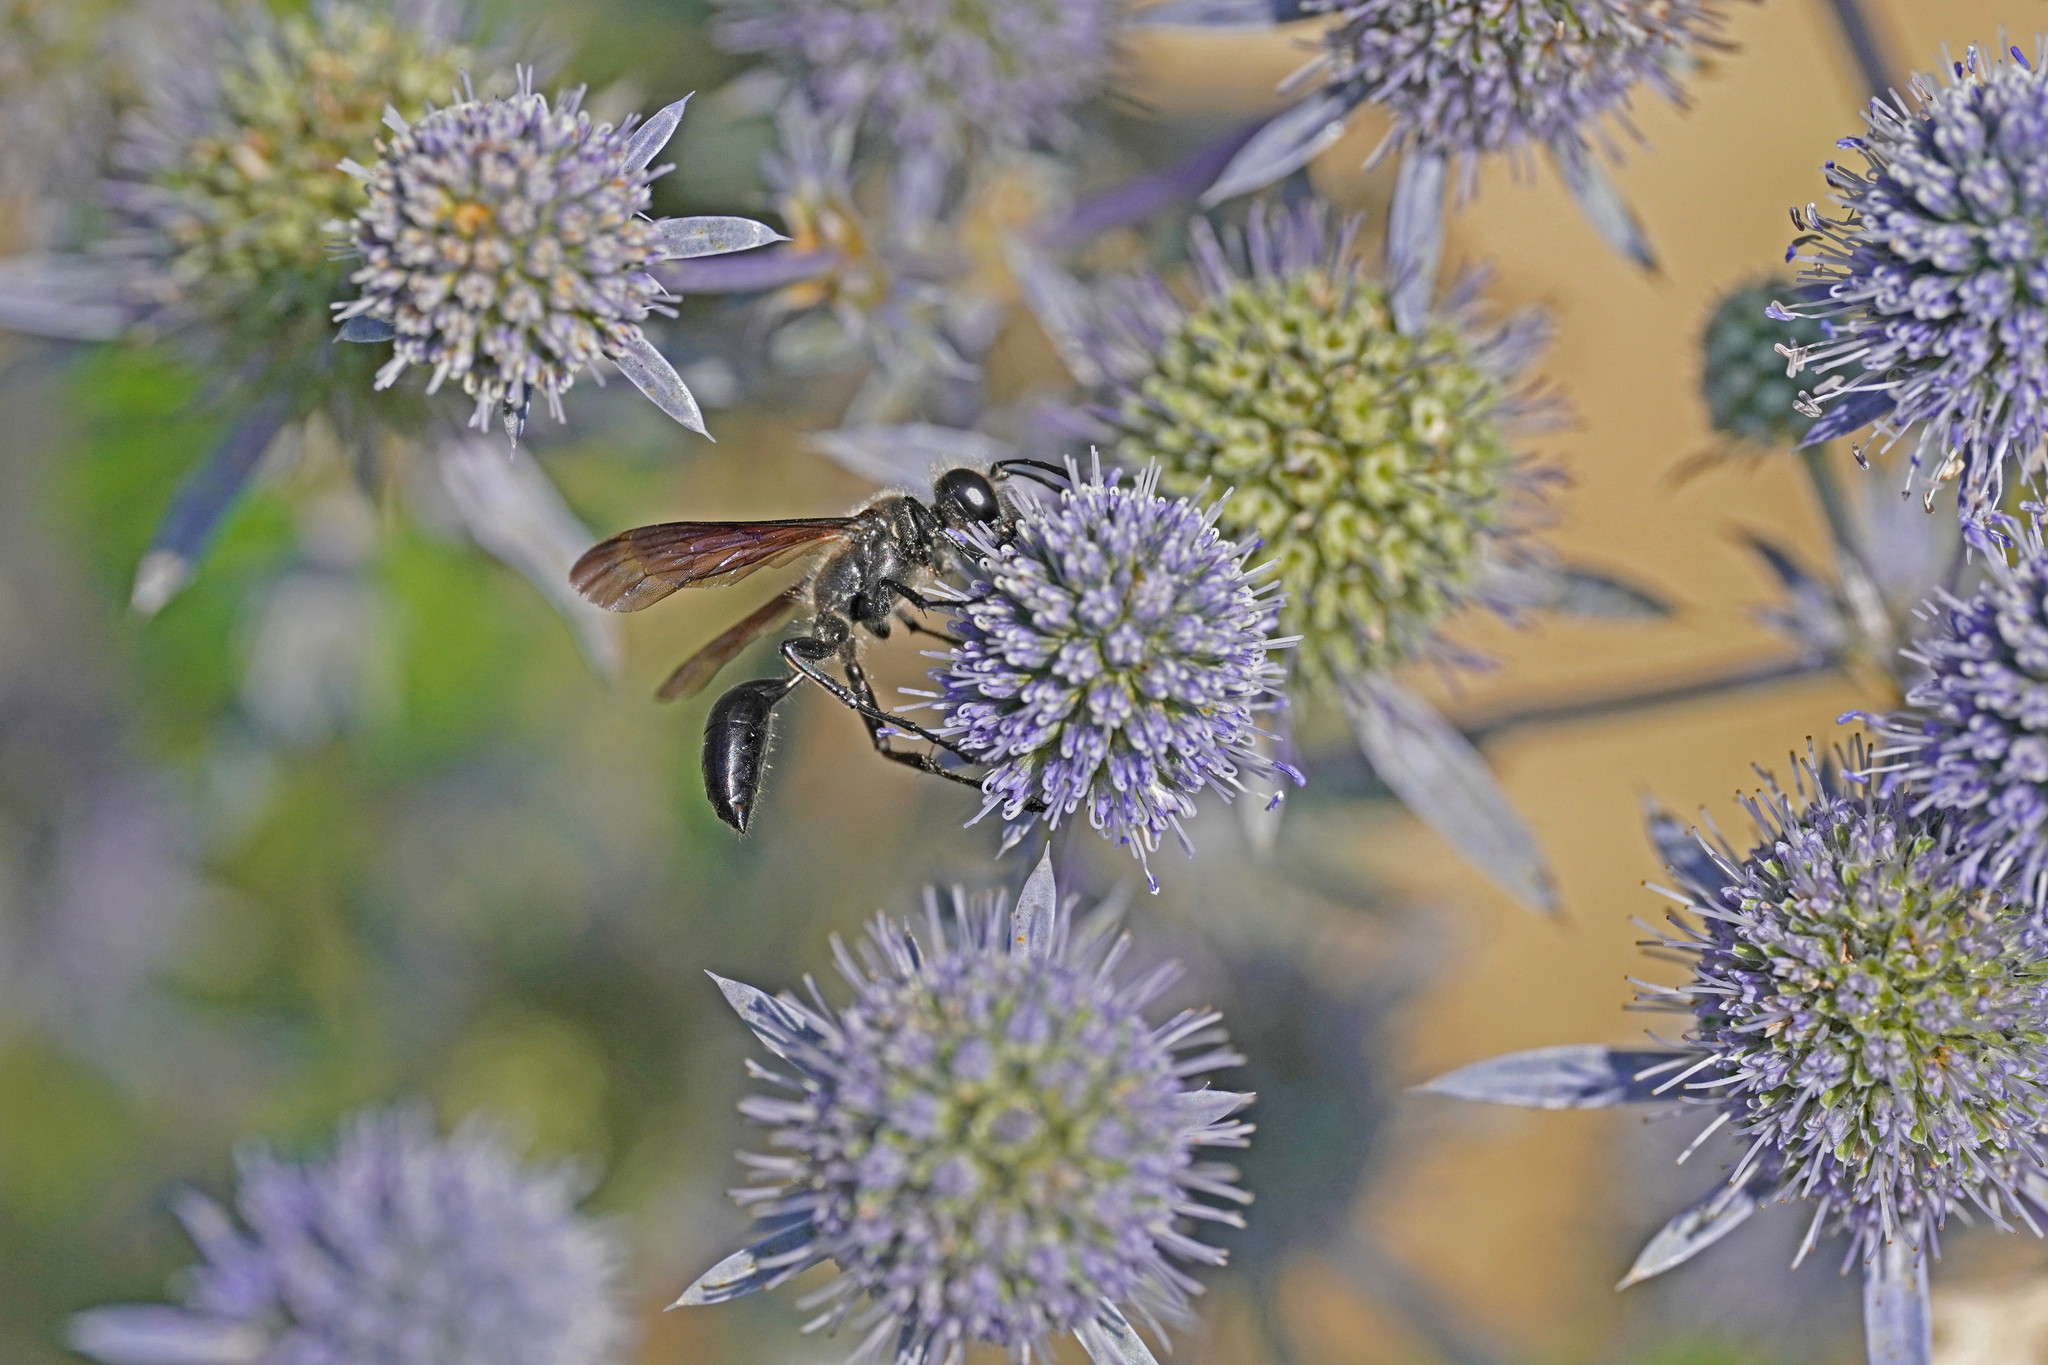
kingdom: Animalia
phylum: Arthropoda
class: Insecta
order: Hymenoptera
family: Sphecidae
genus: Isodontia
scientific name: Isodontia mexicana
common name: Mud dauber
